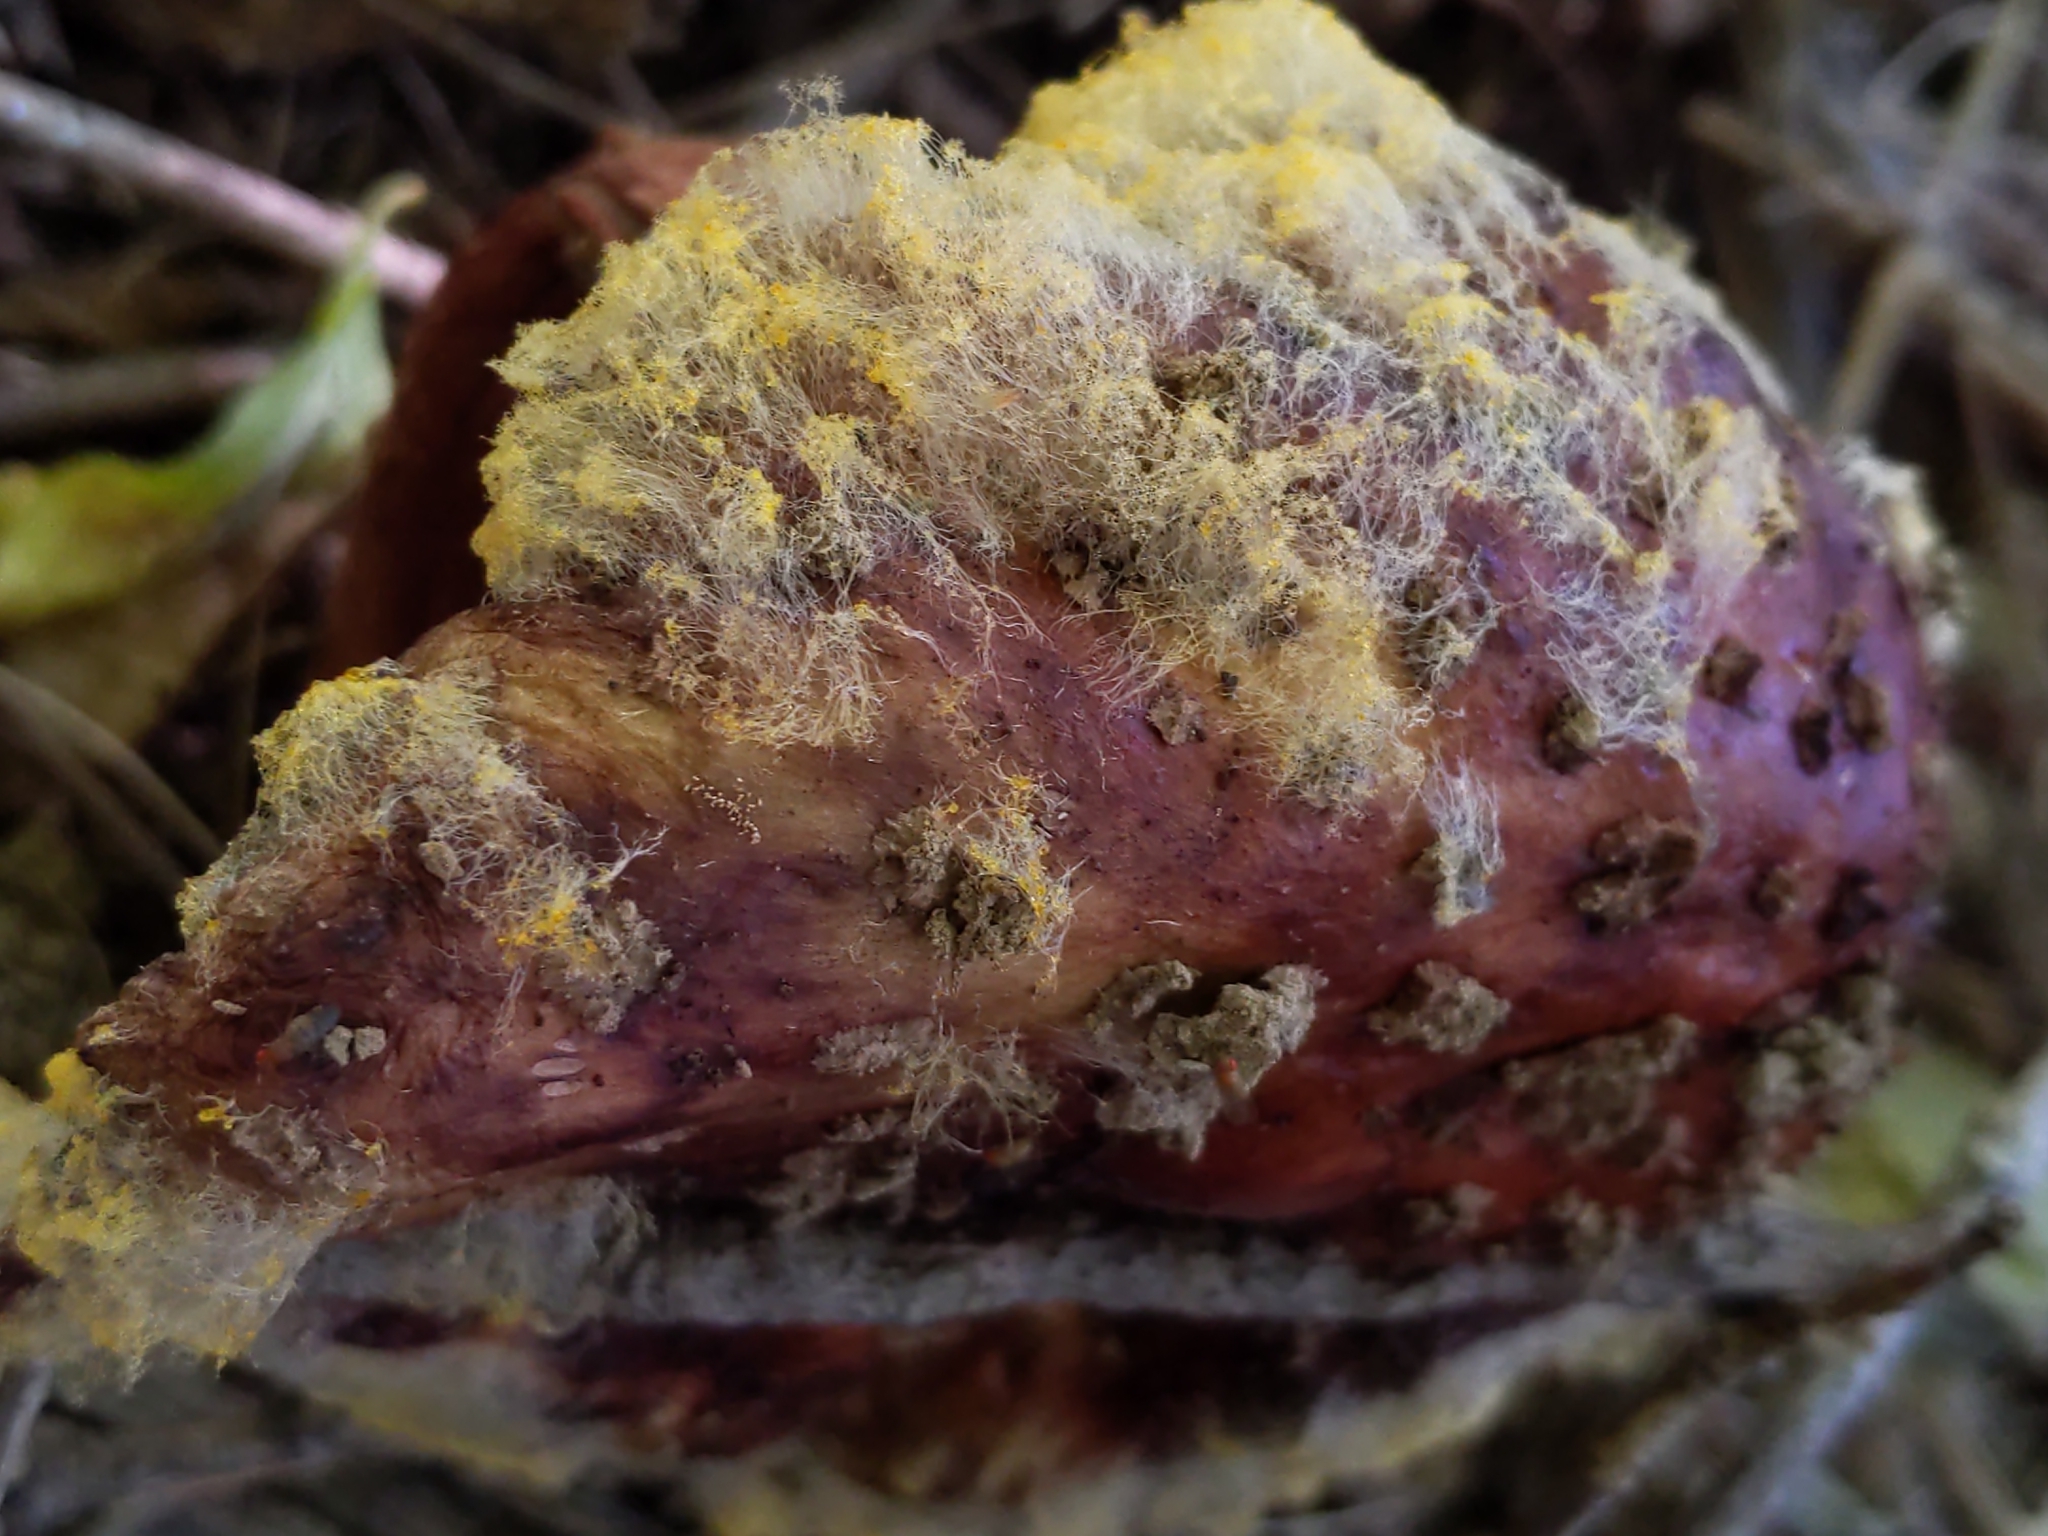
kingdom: Fungi
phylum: Mucoromycota
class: Mucoromycetes
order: Mucorales
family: Rhizopodaceae
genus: Syzygites
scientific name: Syzygites megalocarpus
